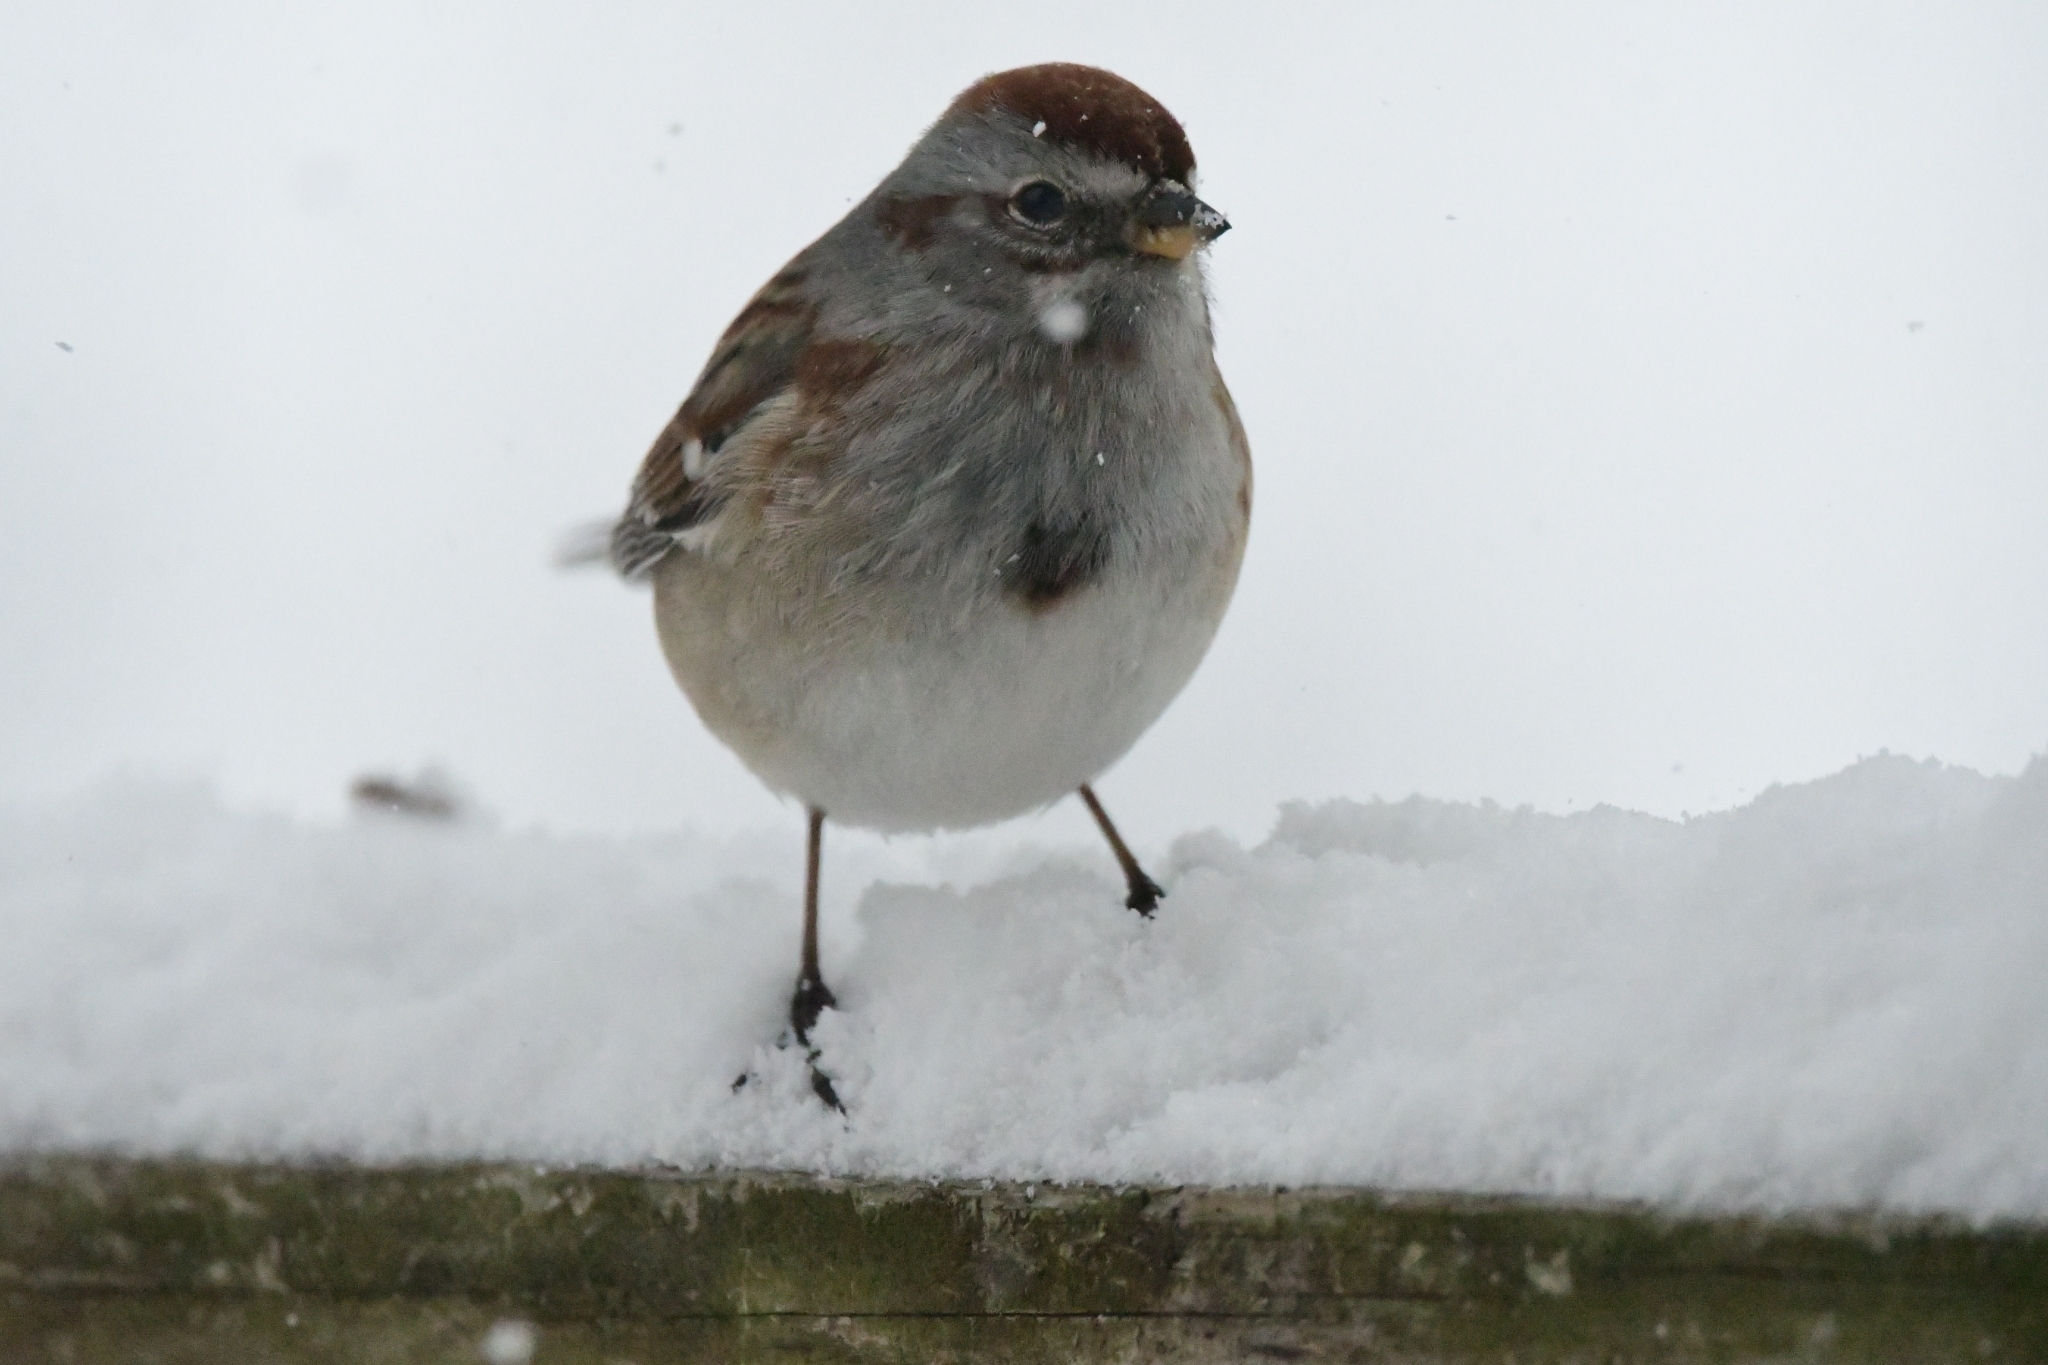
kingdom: Animalia
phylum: Chordata
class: Aves
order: Passeriformes
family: Passerellidae
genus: Spizelloides
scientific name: Spizelloides arborea
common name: American tree sparrow
